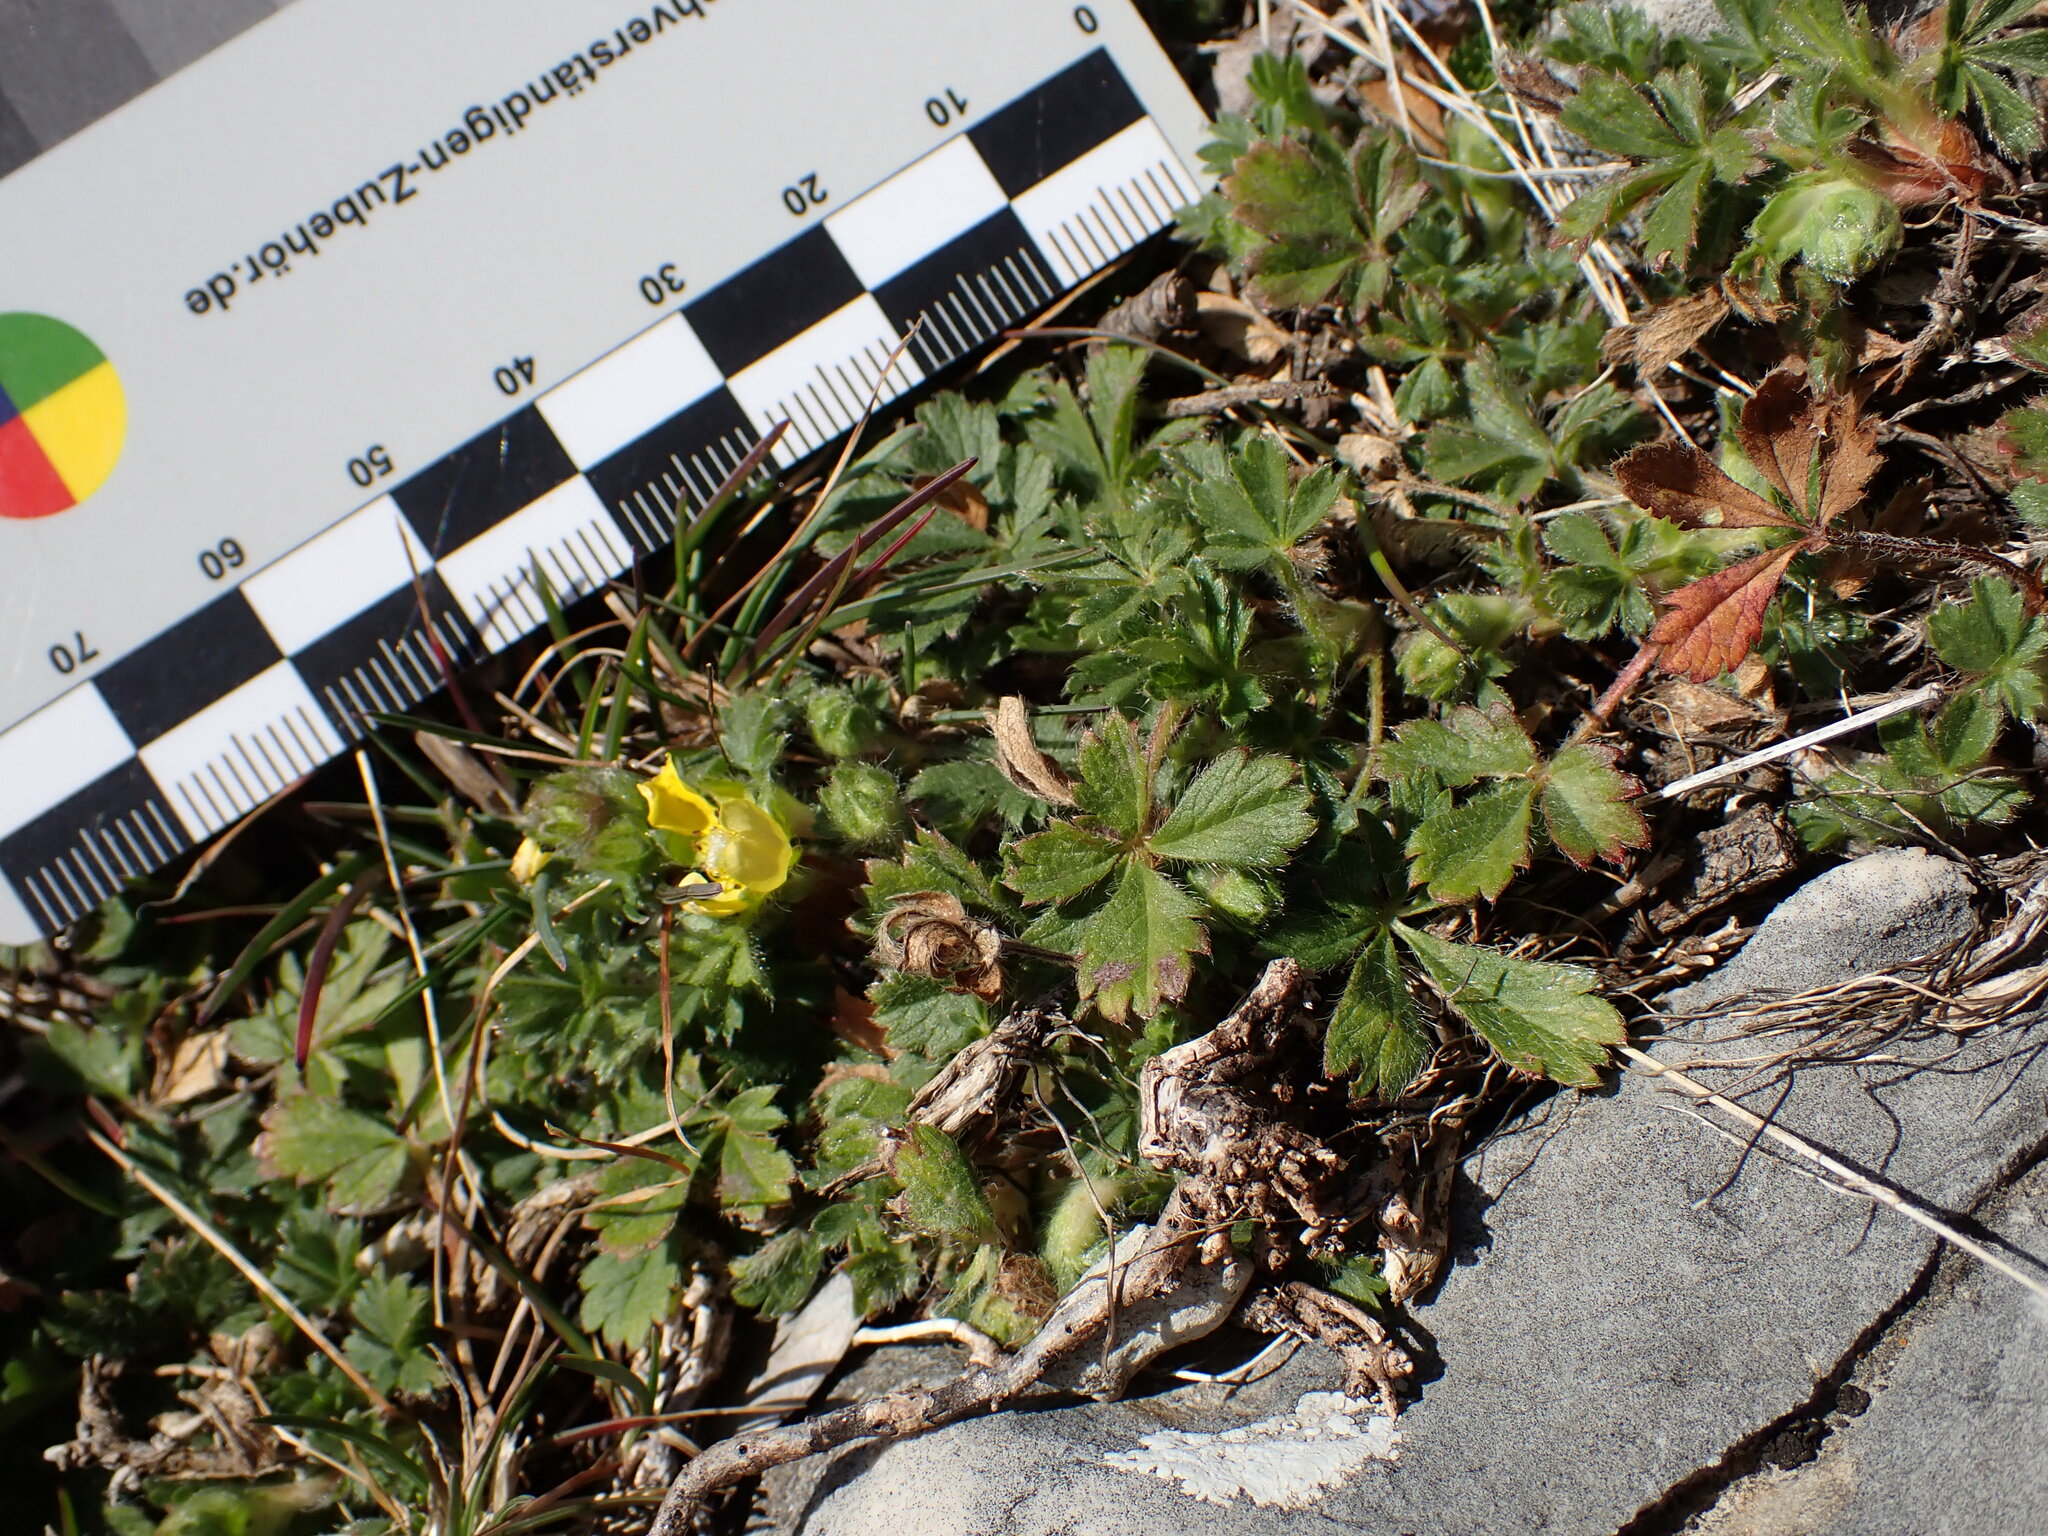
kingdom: Plantae
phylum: Tracheophyta
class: Magnoliopsida
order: Rosales
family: Rosaceae
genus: Potentilla
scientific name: Potentilla verna
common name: Spring cinquefoil
